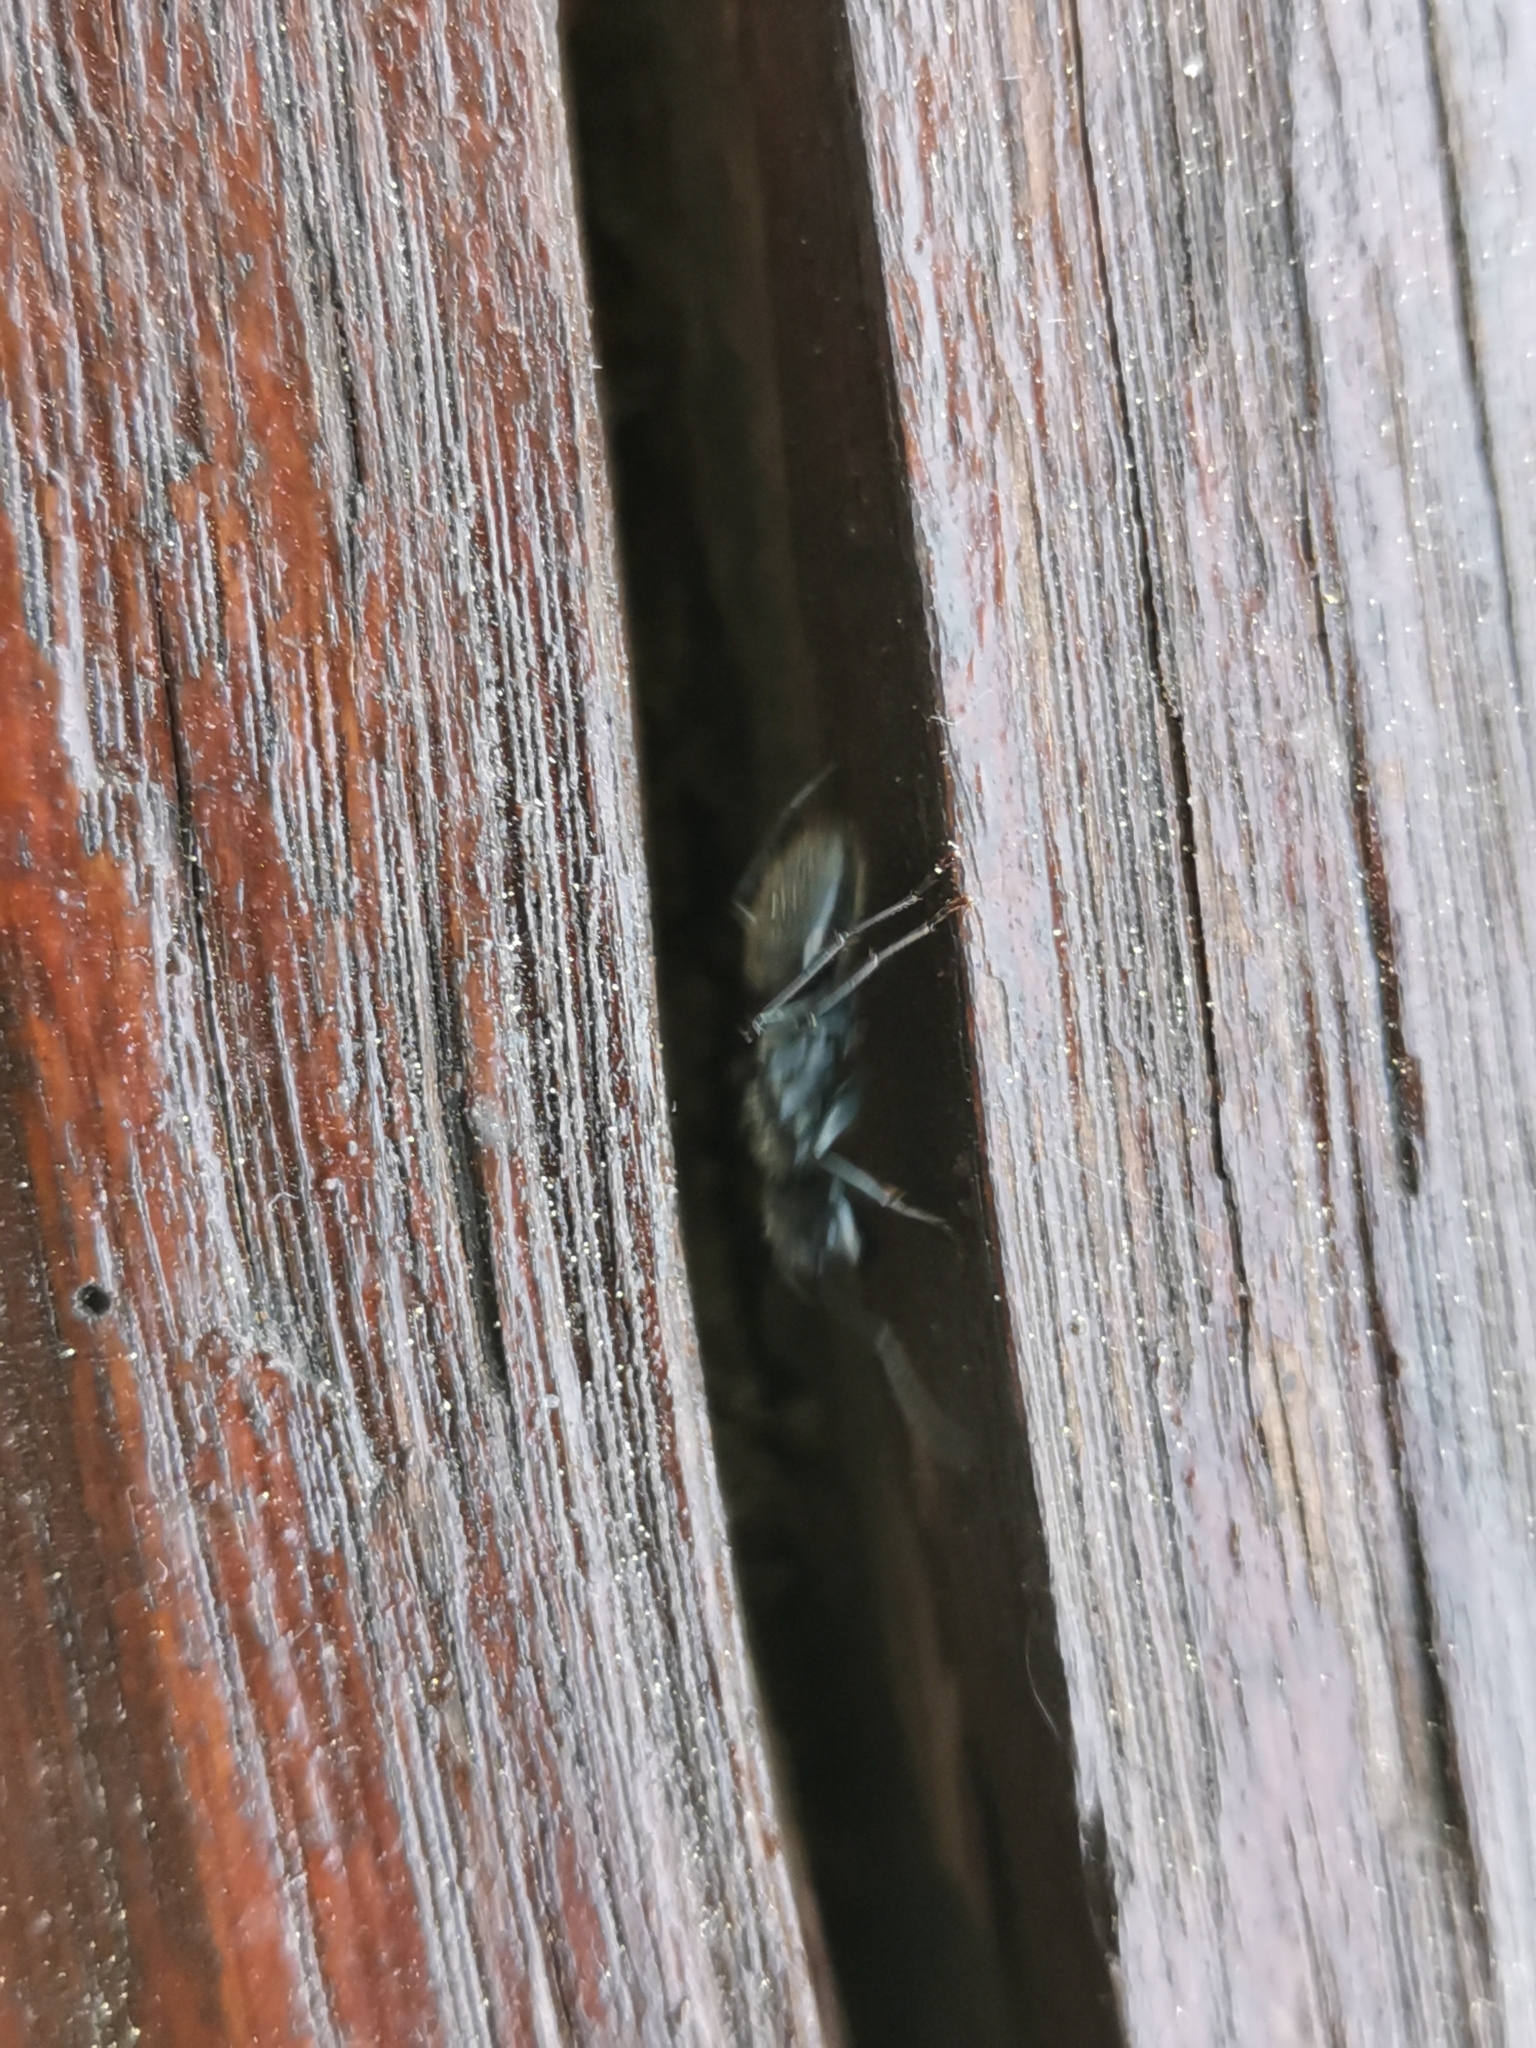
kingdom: Animalia
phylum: Arthropoda
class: Insecta
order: Hymenoptera
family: Formicidae
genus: Camponotus
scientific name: Camponotus vagus
